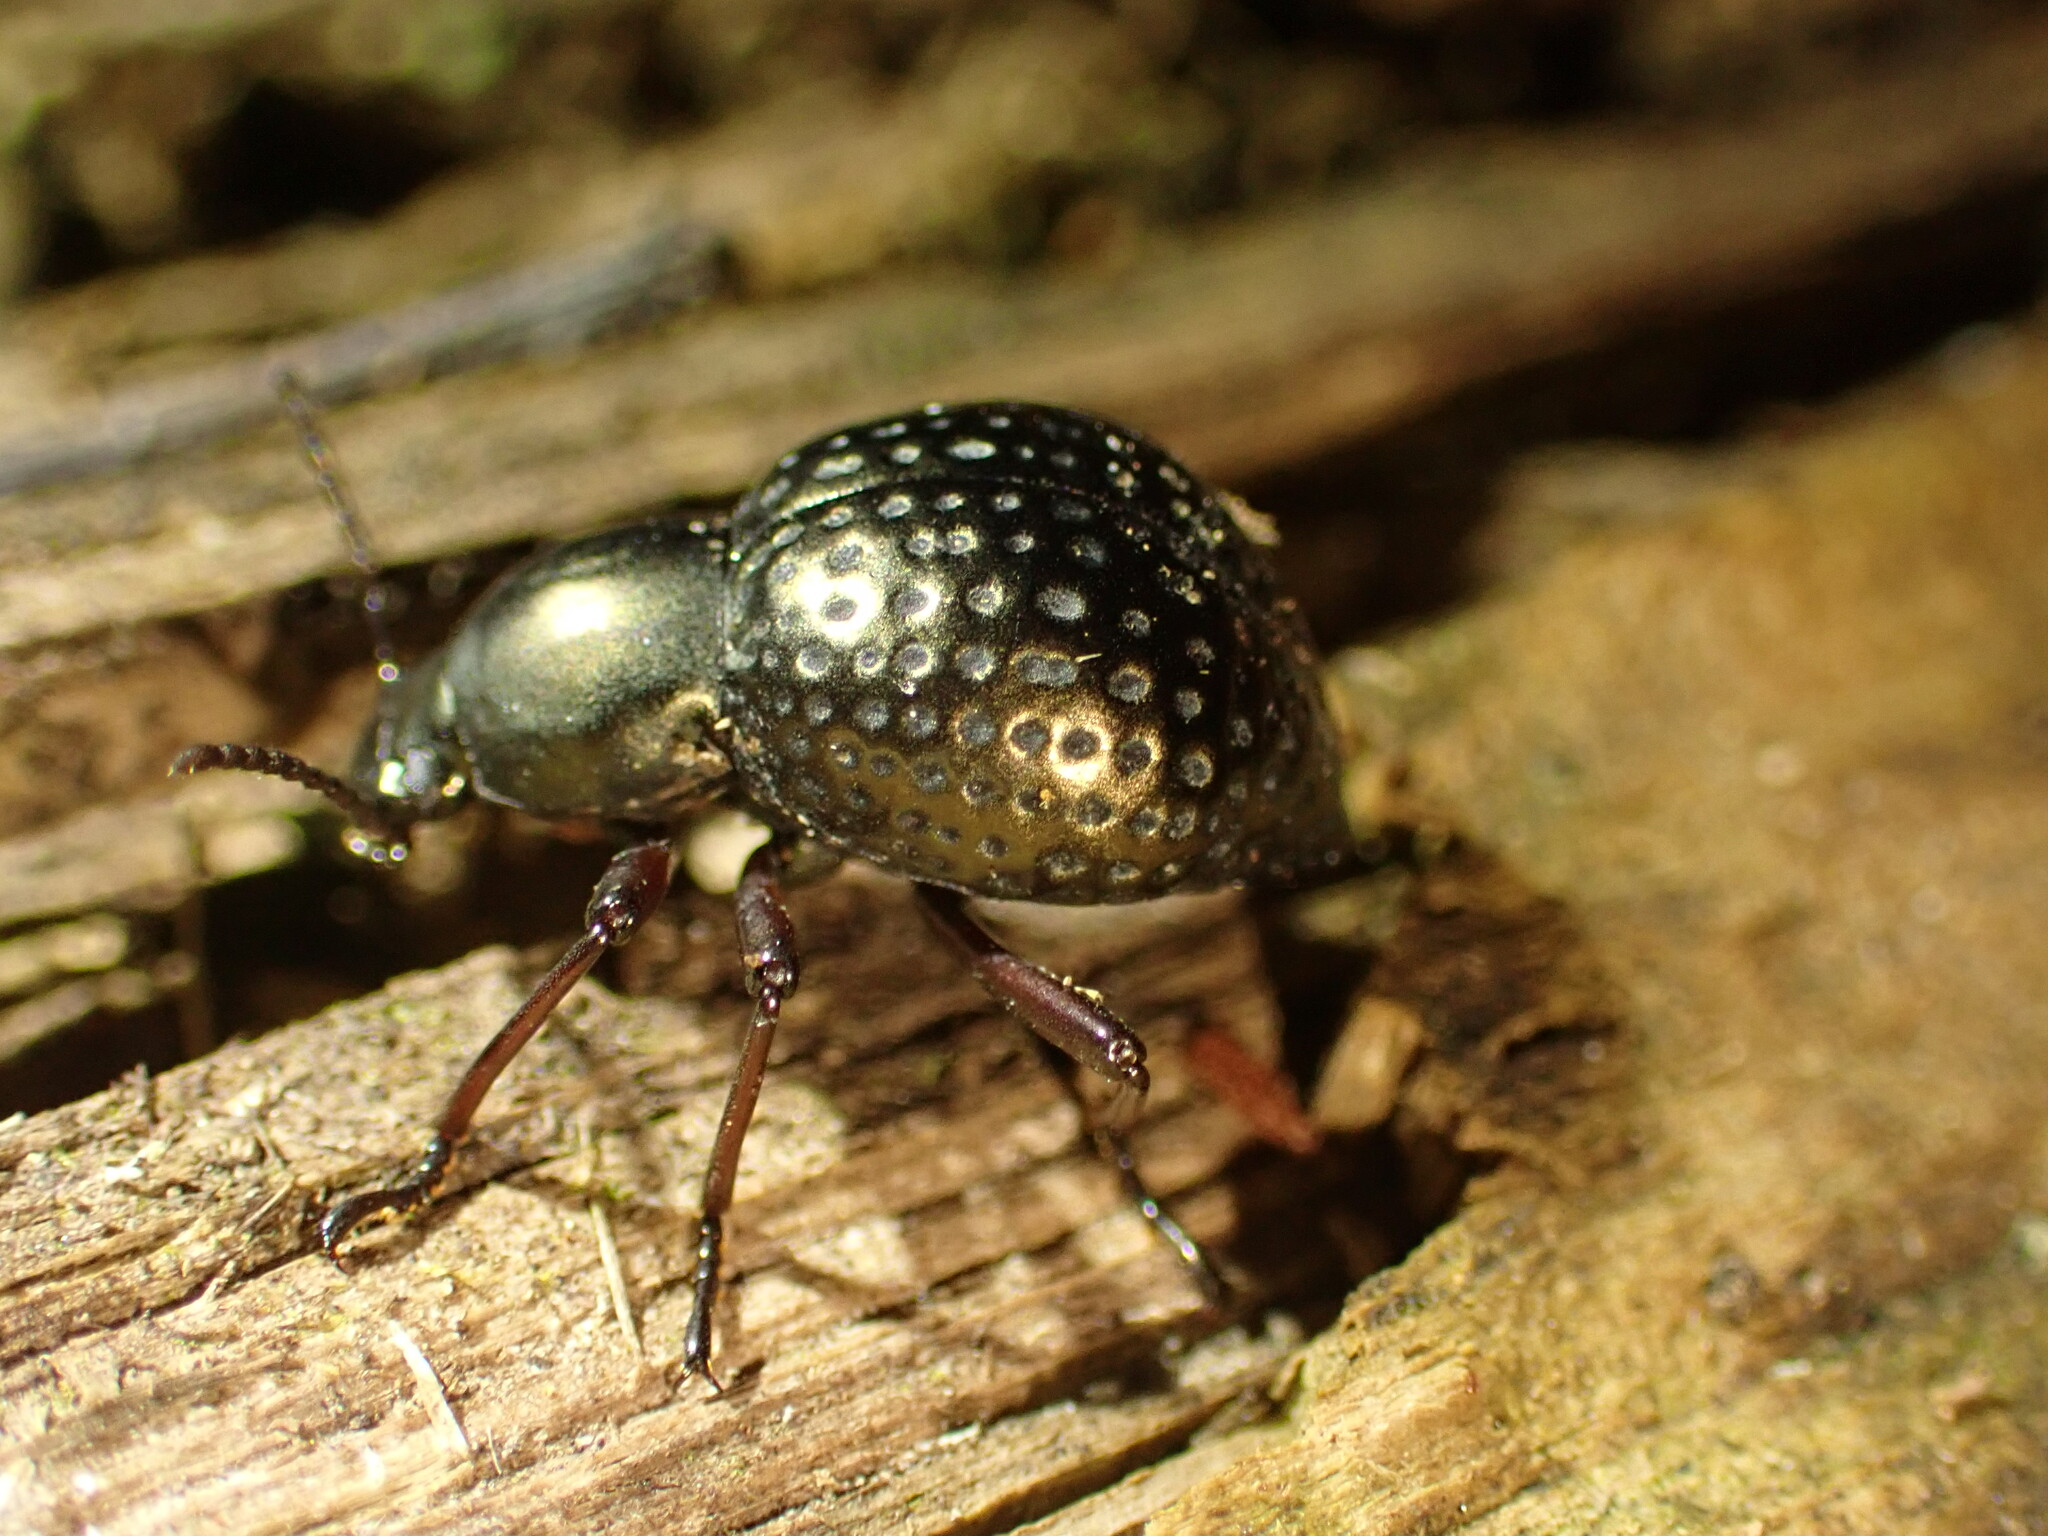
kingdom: Animalia
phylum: Arthropoda
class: Insecta
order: Coleoptera
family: Tenebrionidae
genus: Sphaerotus
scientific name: Sphaerotus
